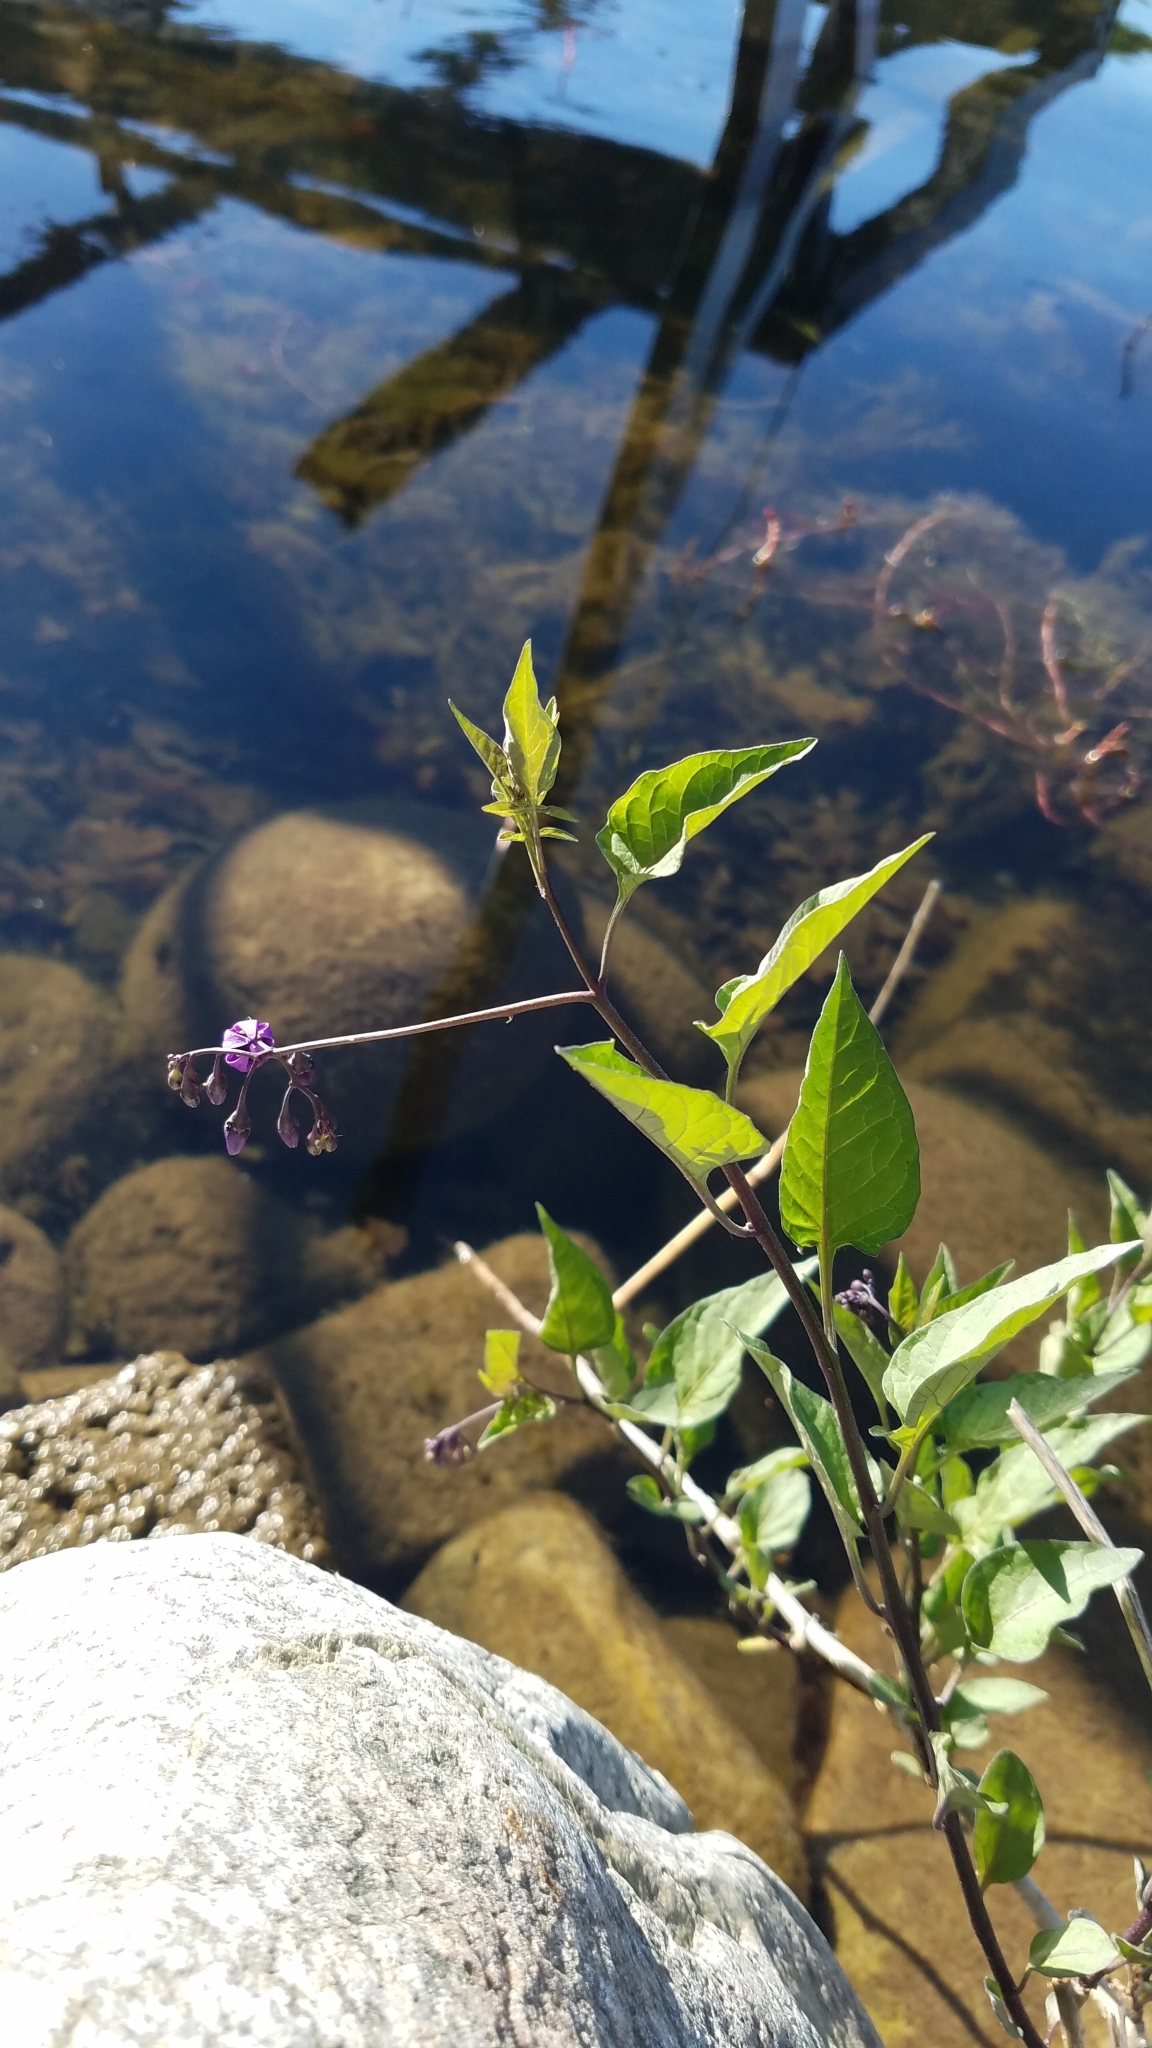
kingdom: Plantae
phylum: Tracheophyta
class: Magnoliopsida
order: Solanales
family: Solanaceae
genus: Solanum
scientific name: Solanum dulcamara
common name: Climbing nightshade
